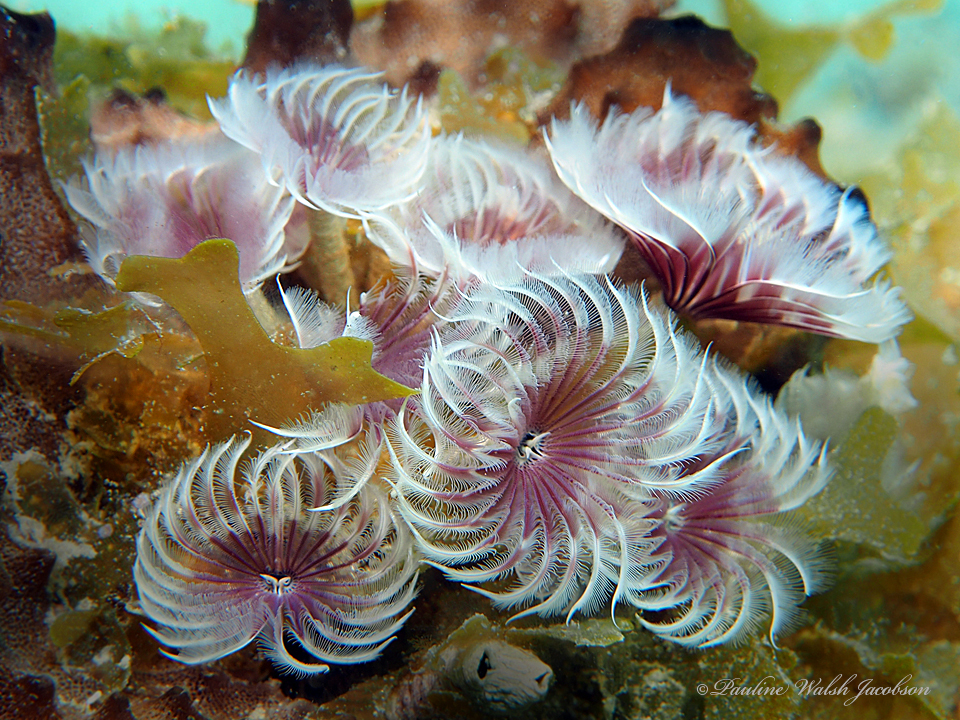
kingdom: Animalia
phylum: Annelida
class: Polychaeta
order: Sabellida
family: Sabellidae
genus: Bispira
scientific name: Bispira brunnea
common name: Social feather duster
